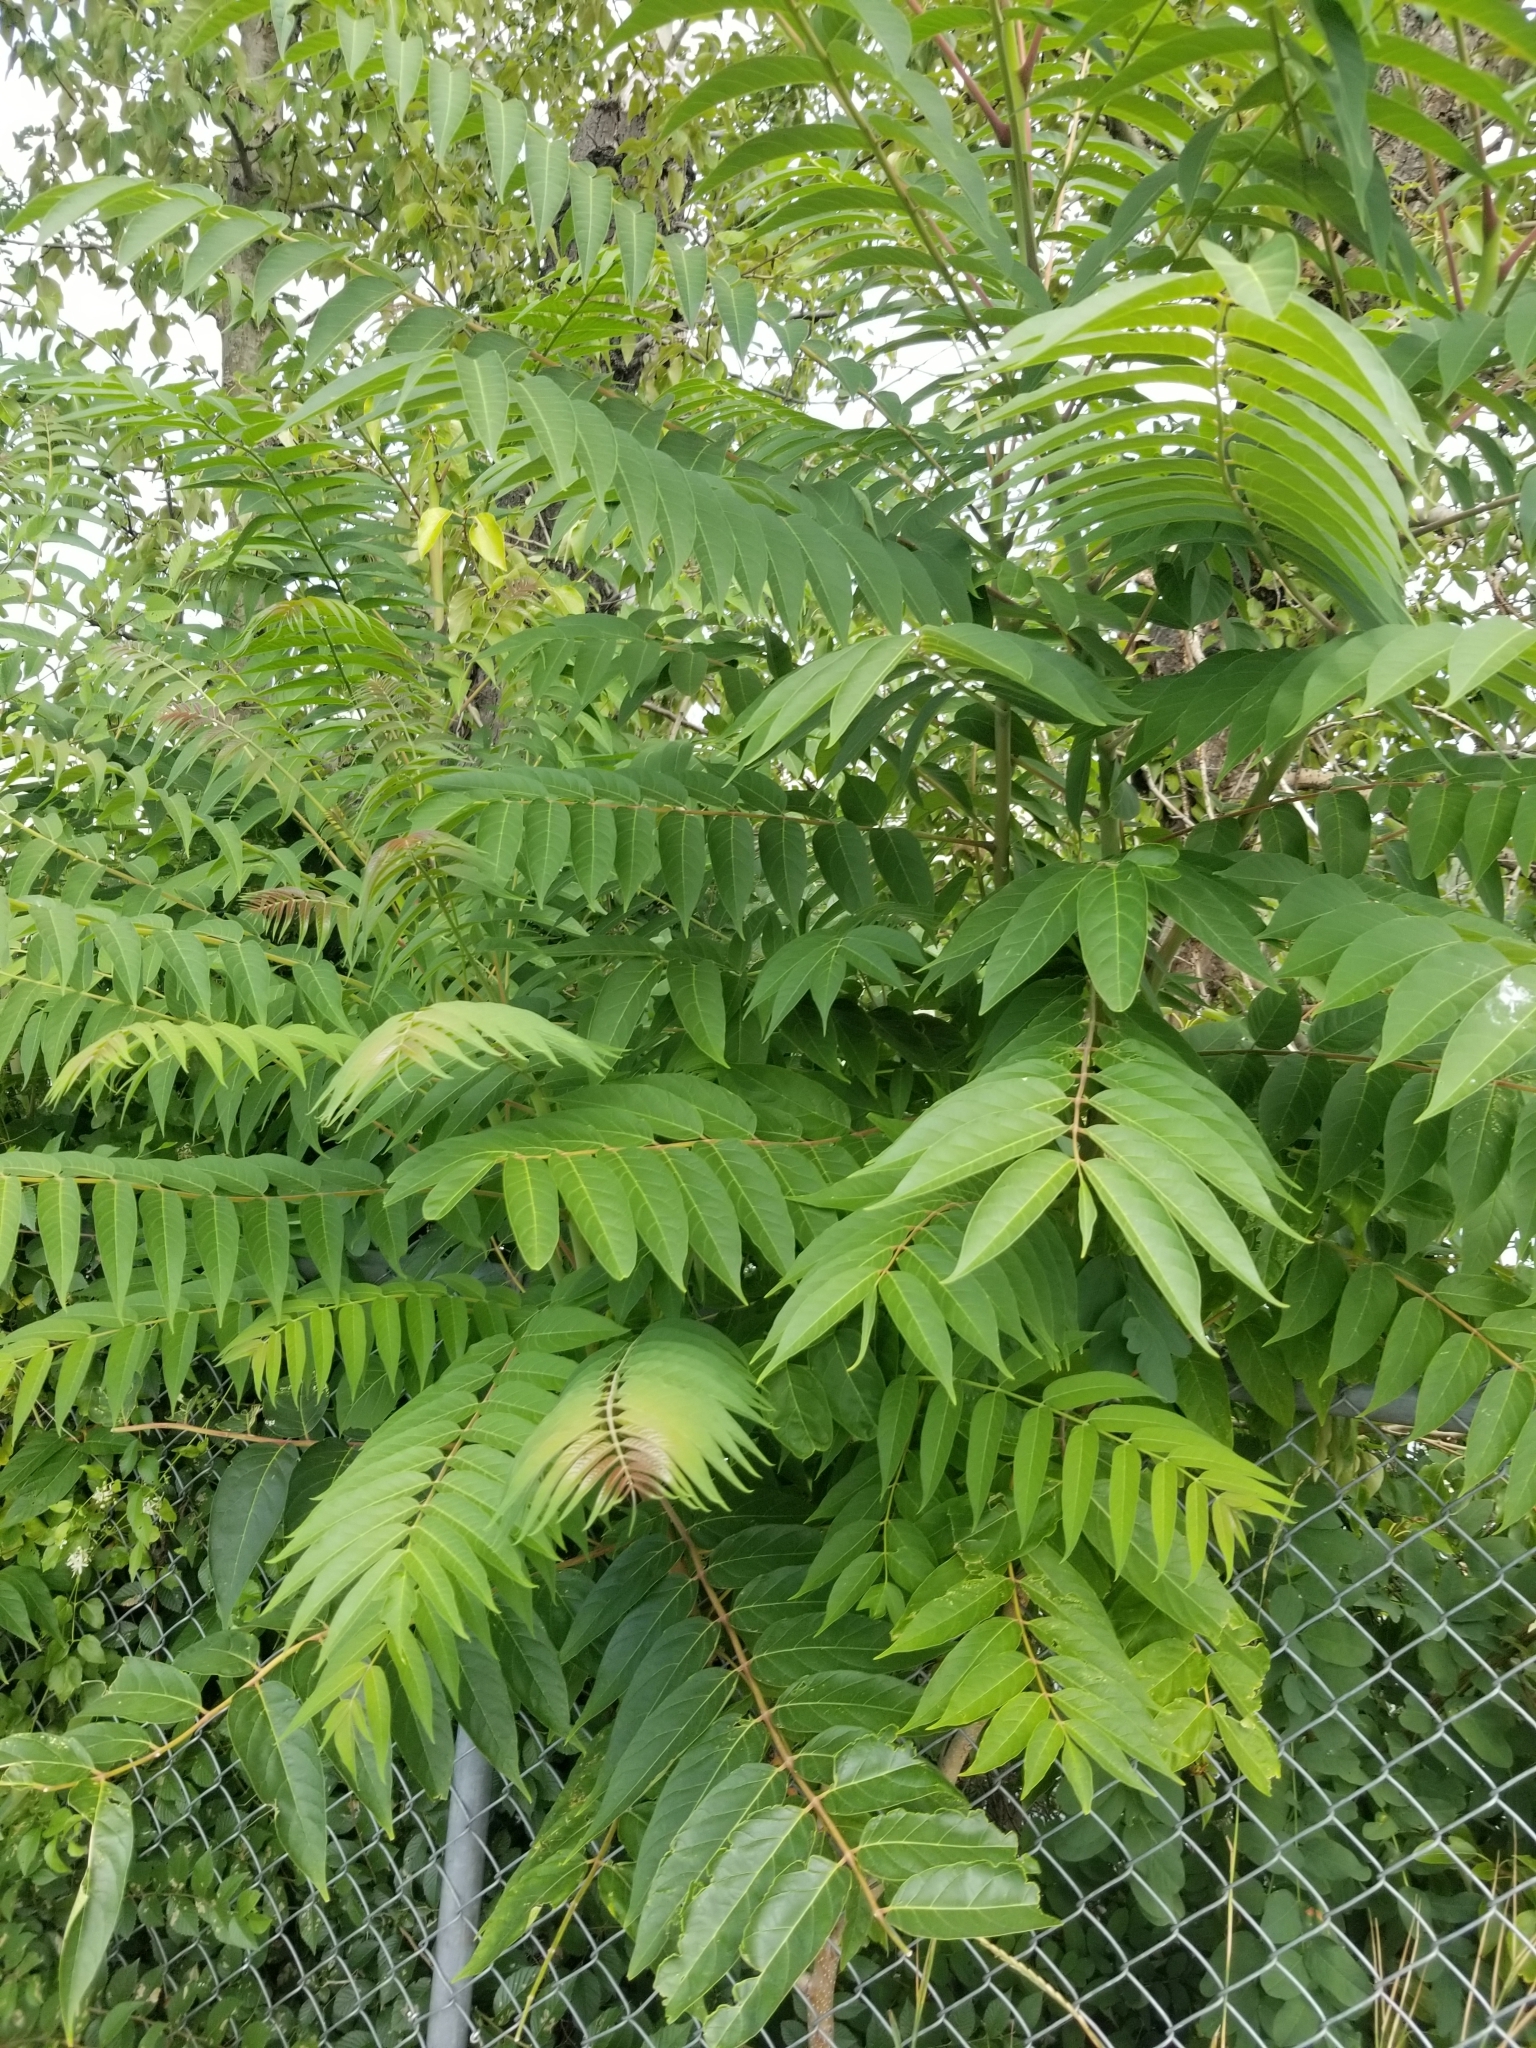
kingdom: Plantae
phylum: Tracheophyta
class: Magnoliopsida
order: Sapindales
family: Simaroubaceae
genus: Ailanthus
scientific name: Ailanthus altissima
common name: Tree-of-heaven
